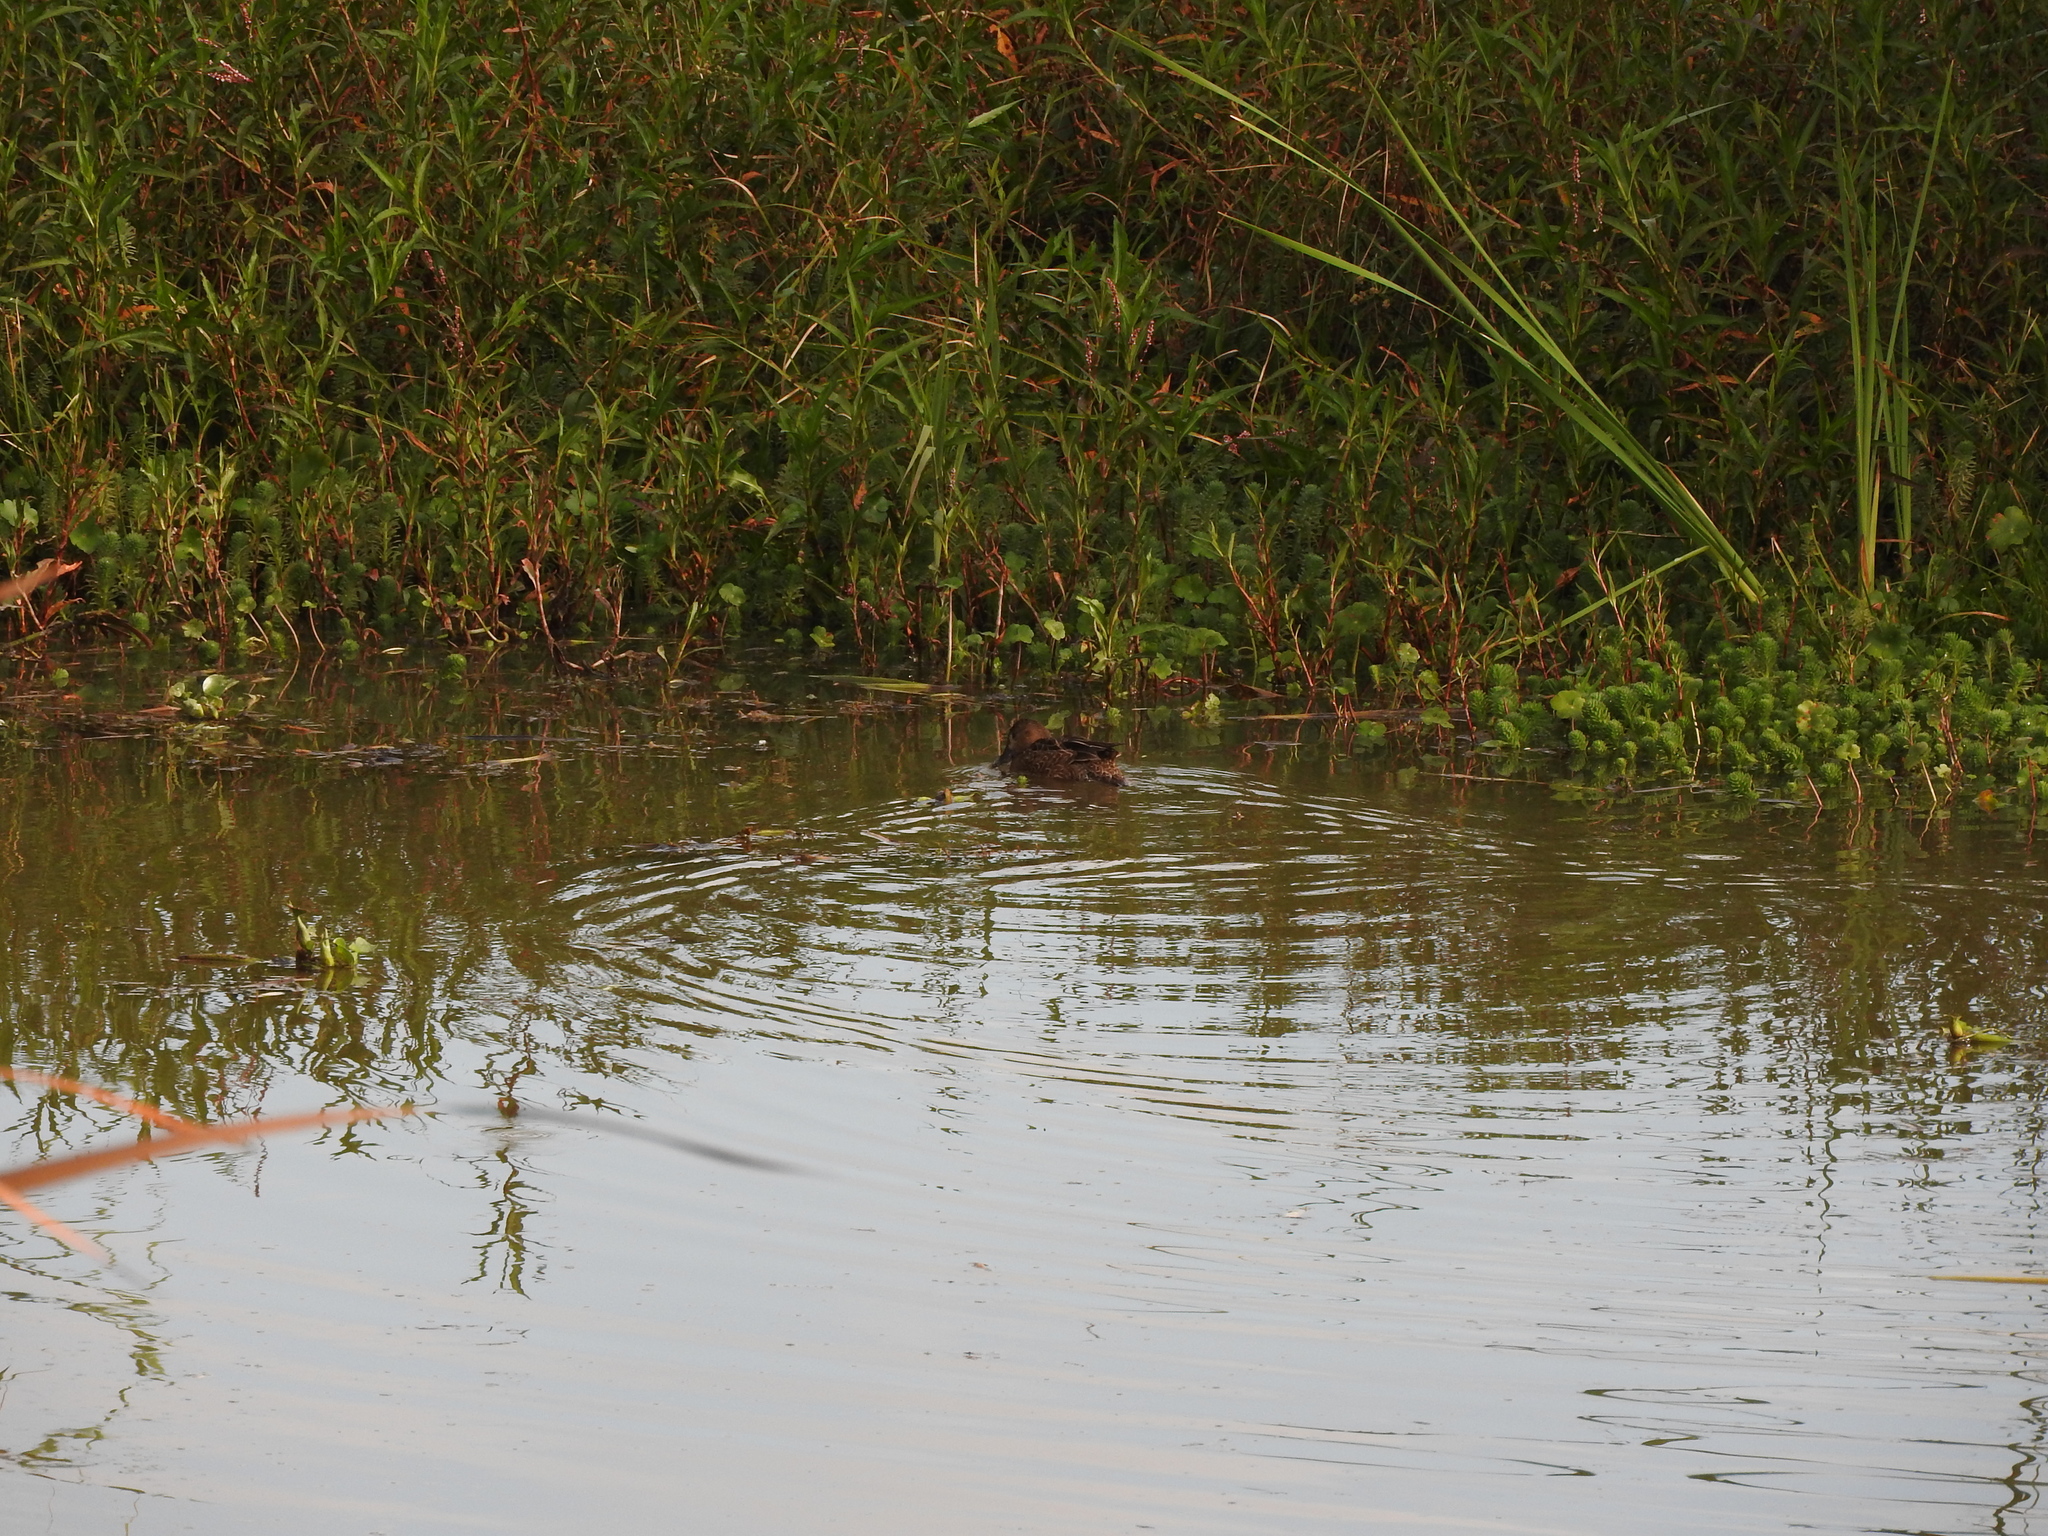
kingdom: Animalia
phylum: Chordata
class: Aves
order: Anseriformes
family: Anatidae
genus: Spatula
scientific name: Spatula cyanoptera
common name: Cinnamon teal
